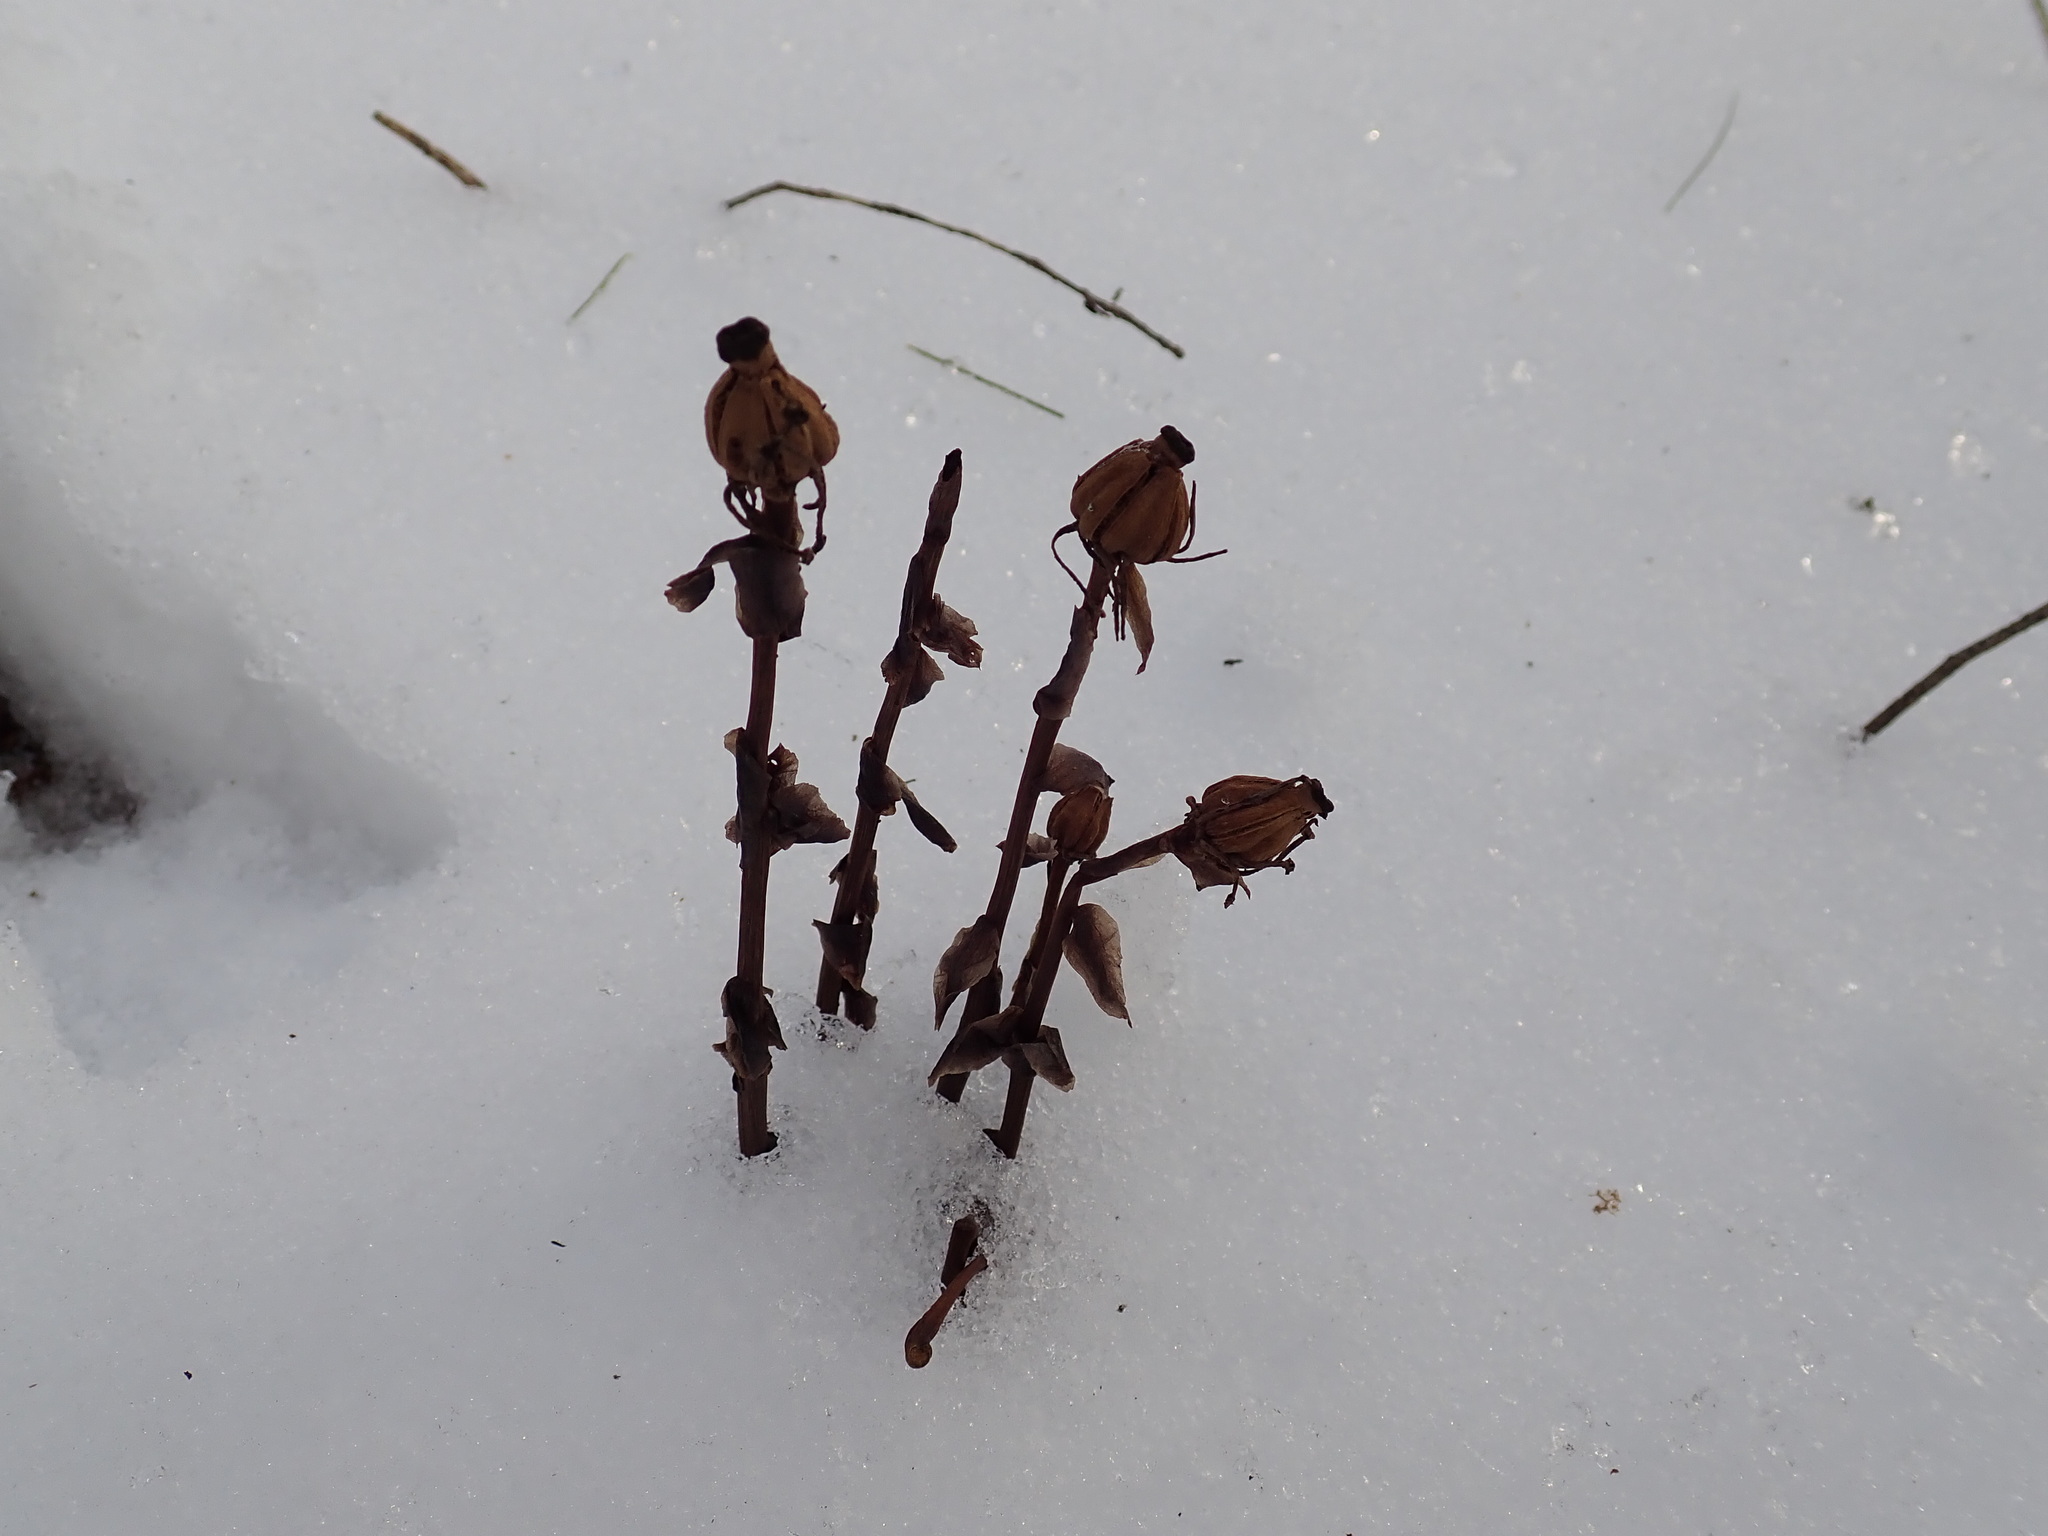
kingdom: Plantae
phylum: Tracheophyta
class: Magnoliopsida
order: Ericales
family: Ericaceae
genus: Monotropa
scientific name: Monotropa uniflora
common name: Convulsion root
